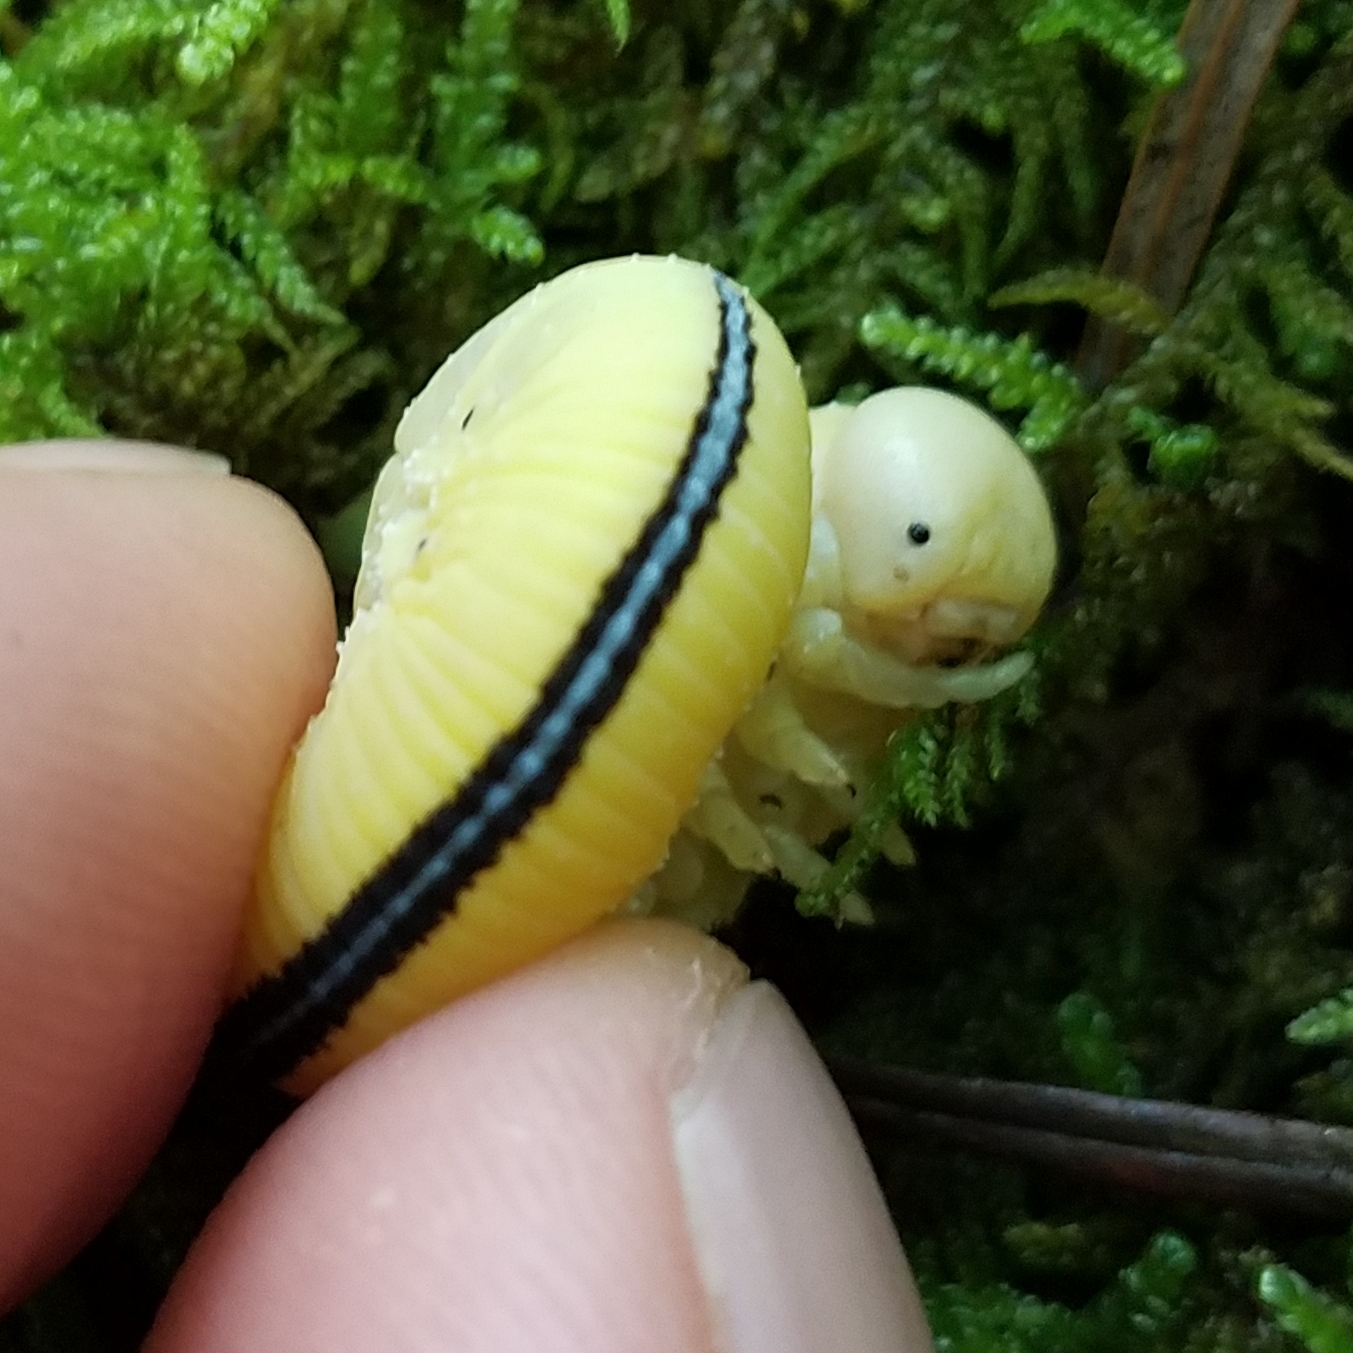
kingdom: Animalia
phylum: Arthropoda
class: Insecta
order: Hymenoptera
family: Cimbicidae
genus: Cimbex
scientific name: Cimbex americana
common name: Elm sawfly
